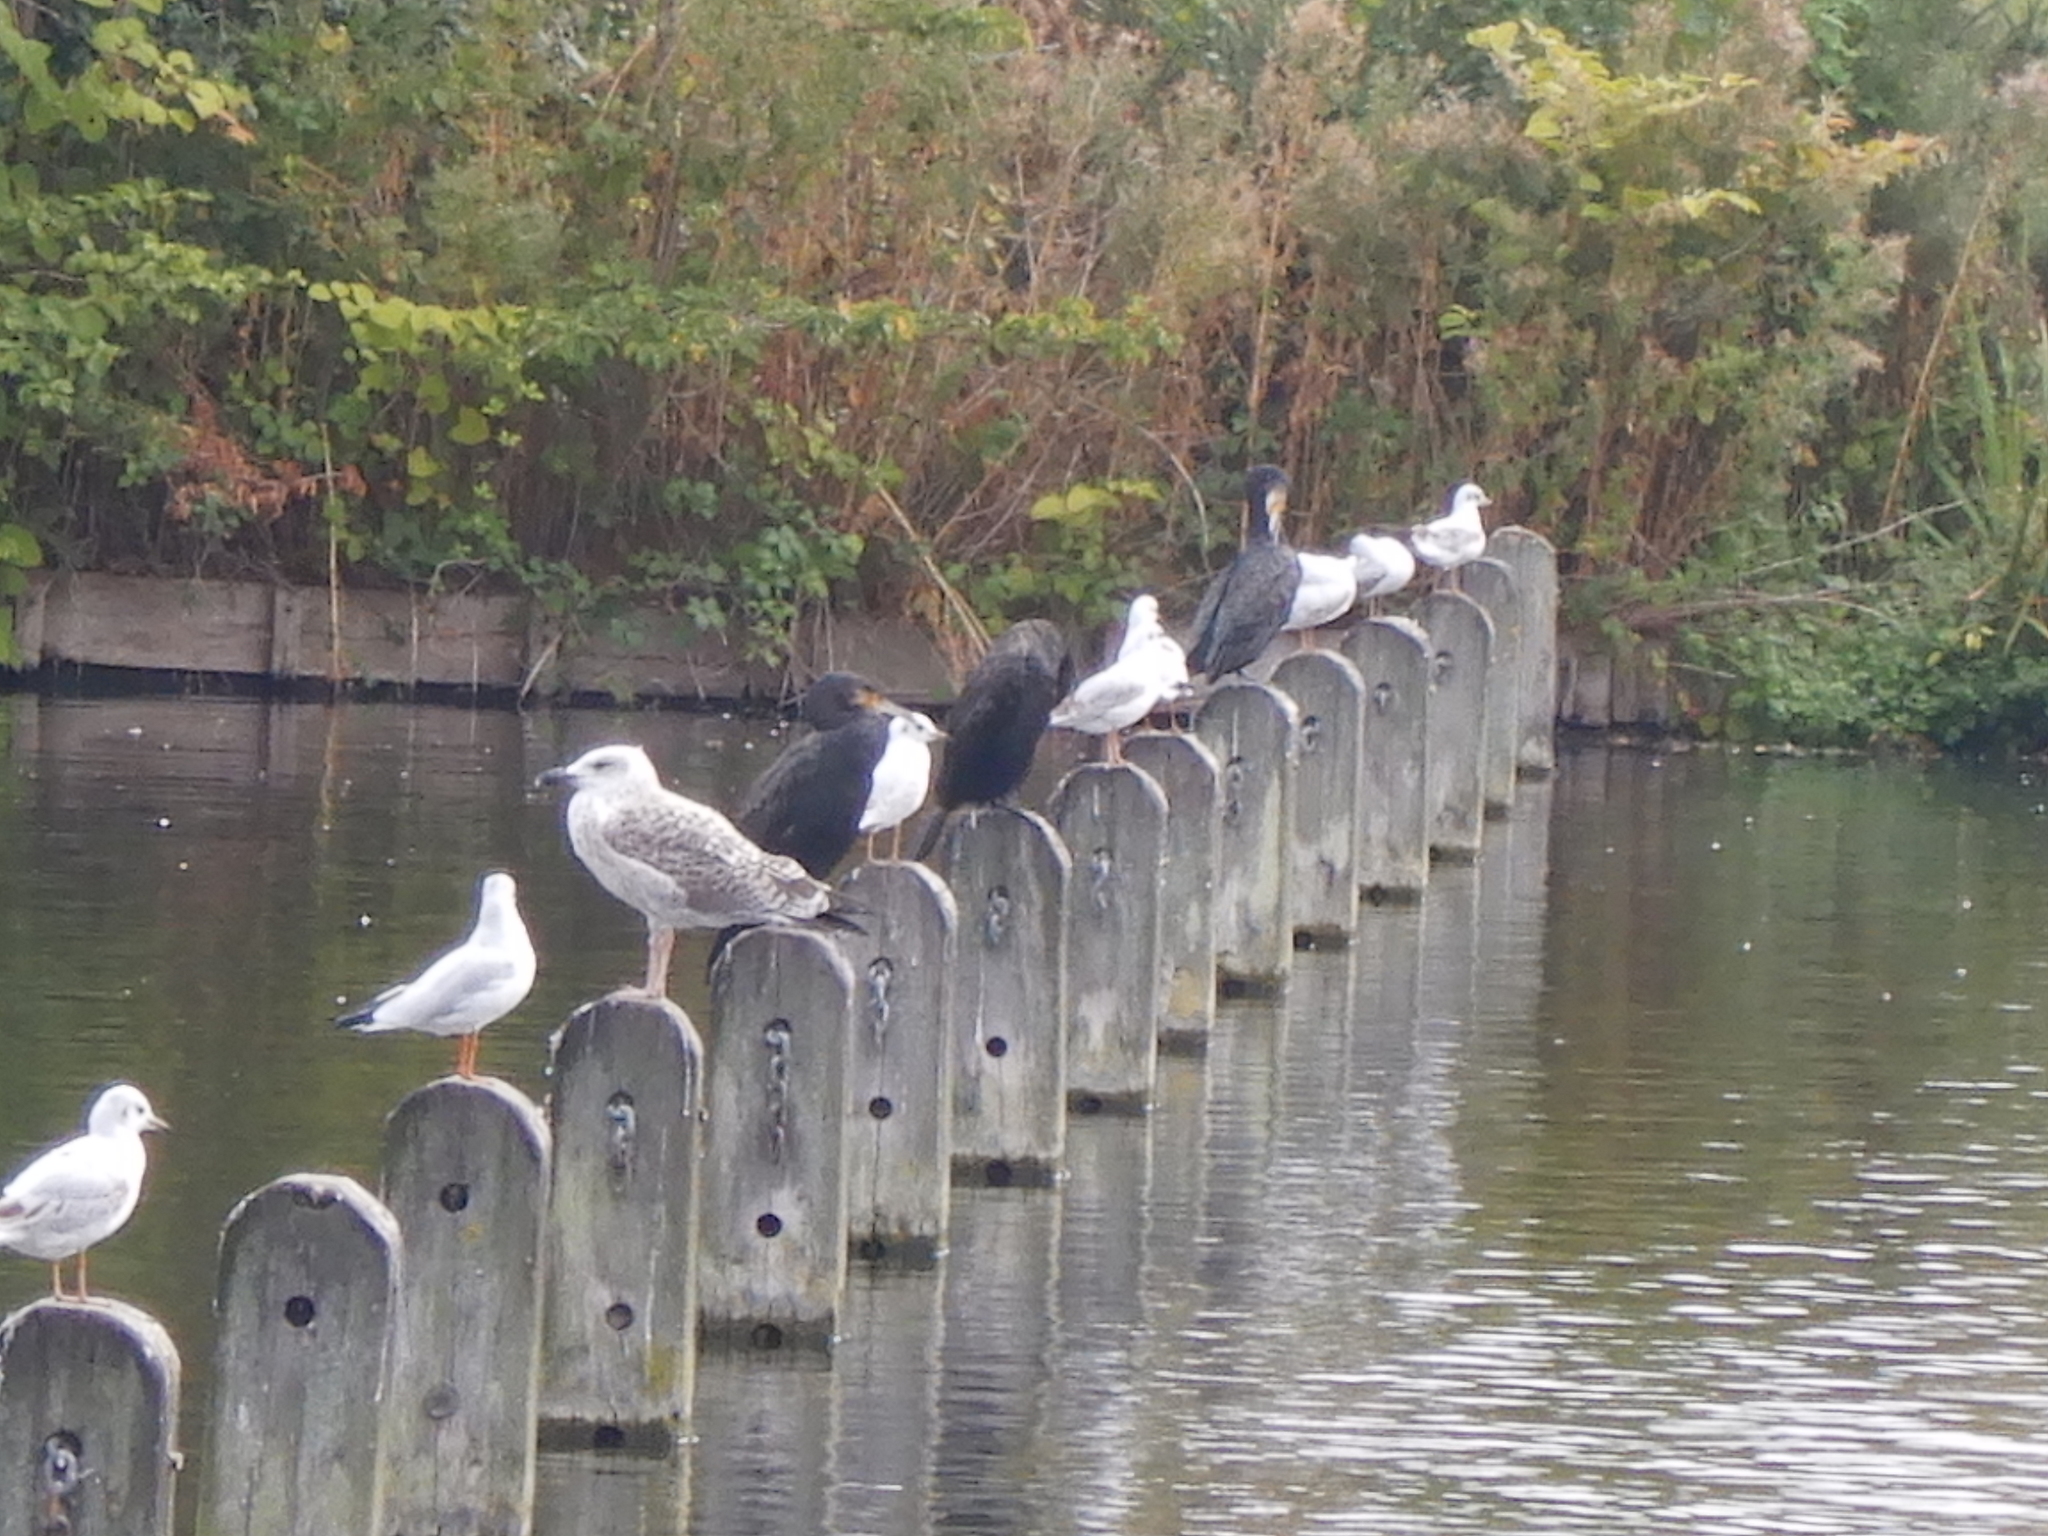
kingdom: Animalia
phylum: Chordata
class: Aves
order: Charadriiformes
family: Laridae
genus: Larus
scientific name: Larus argentatus
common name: Herring gull
